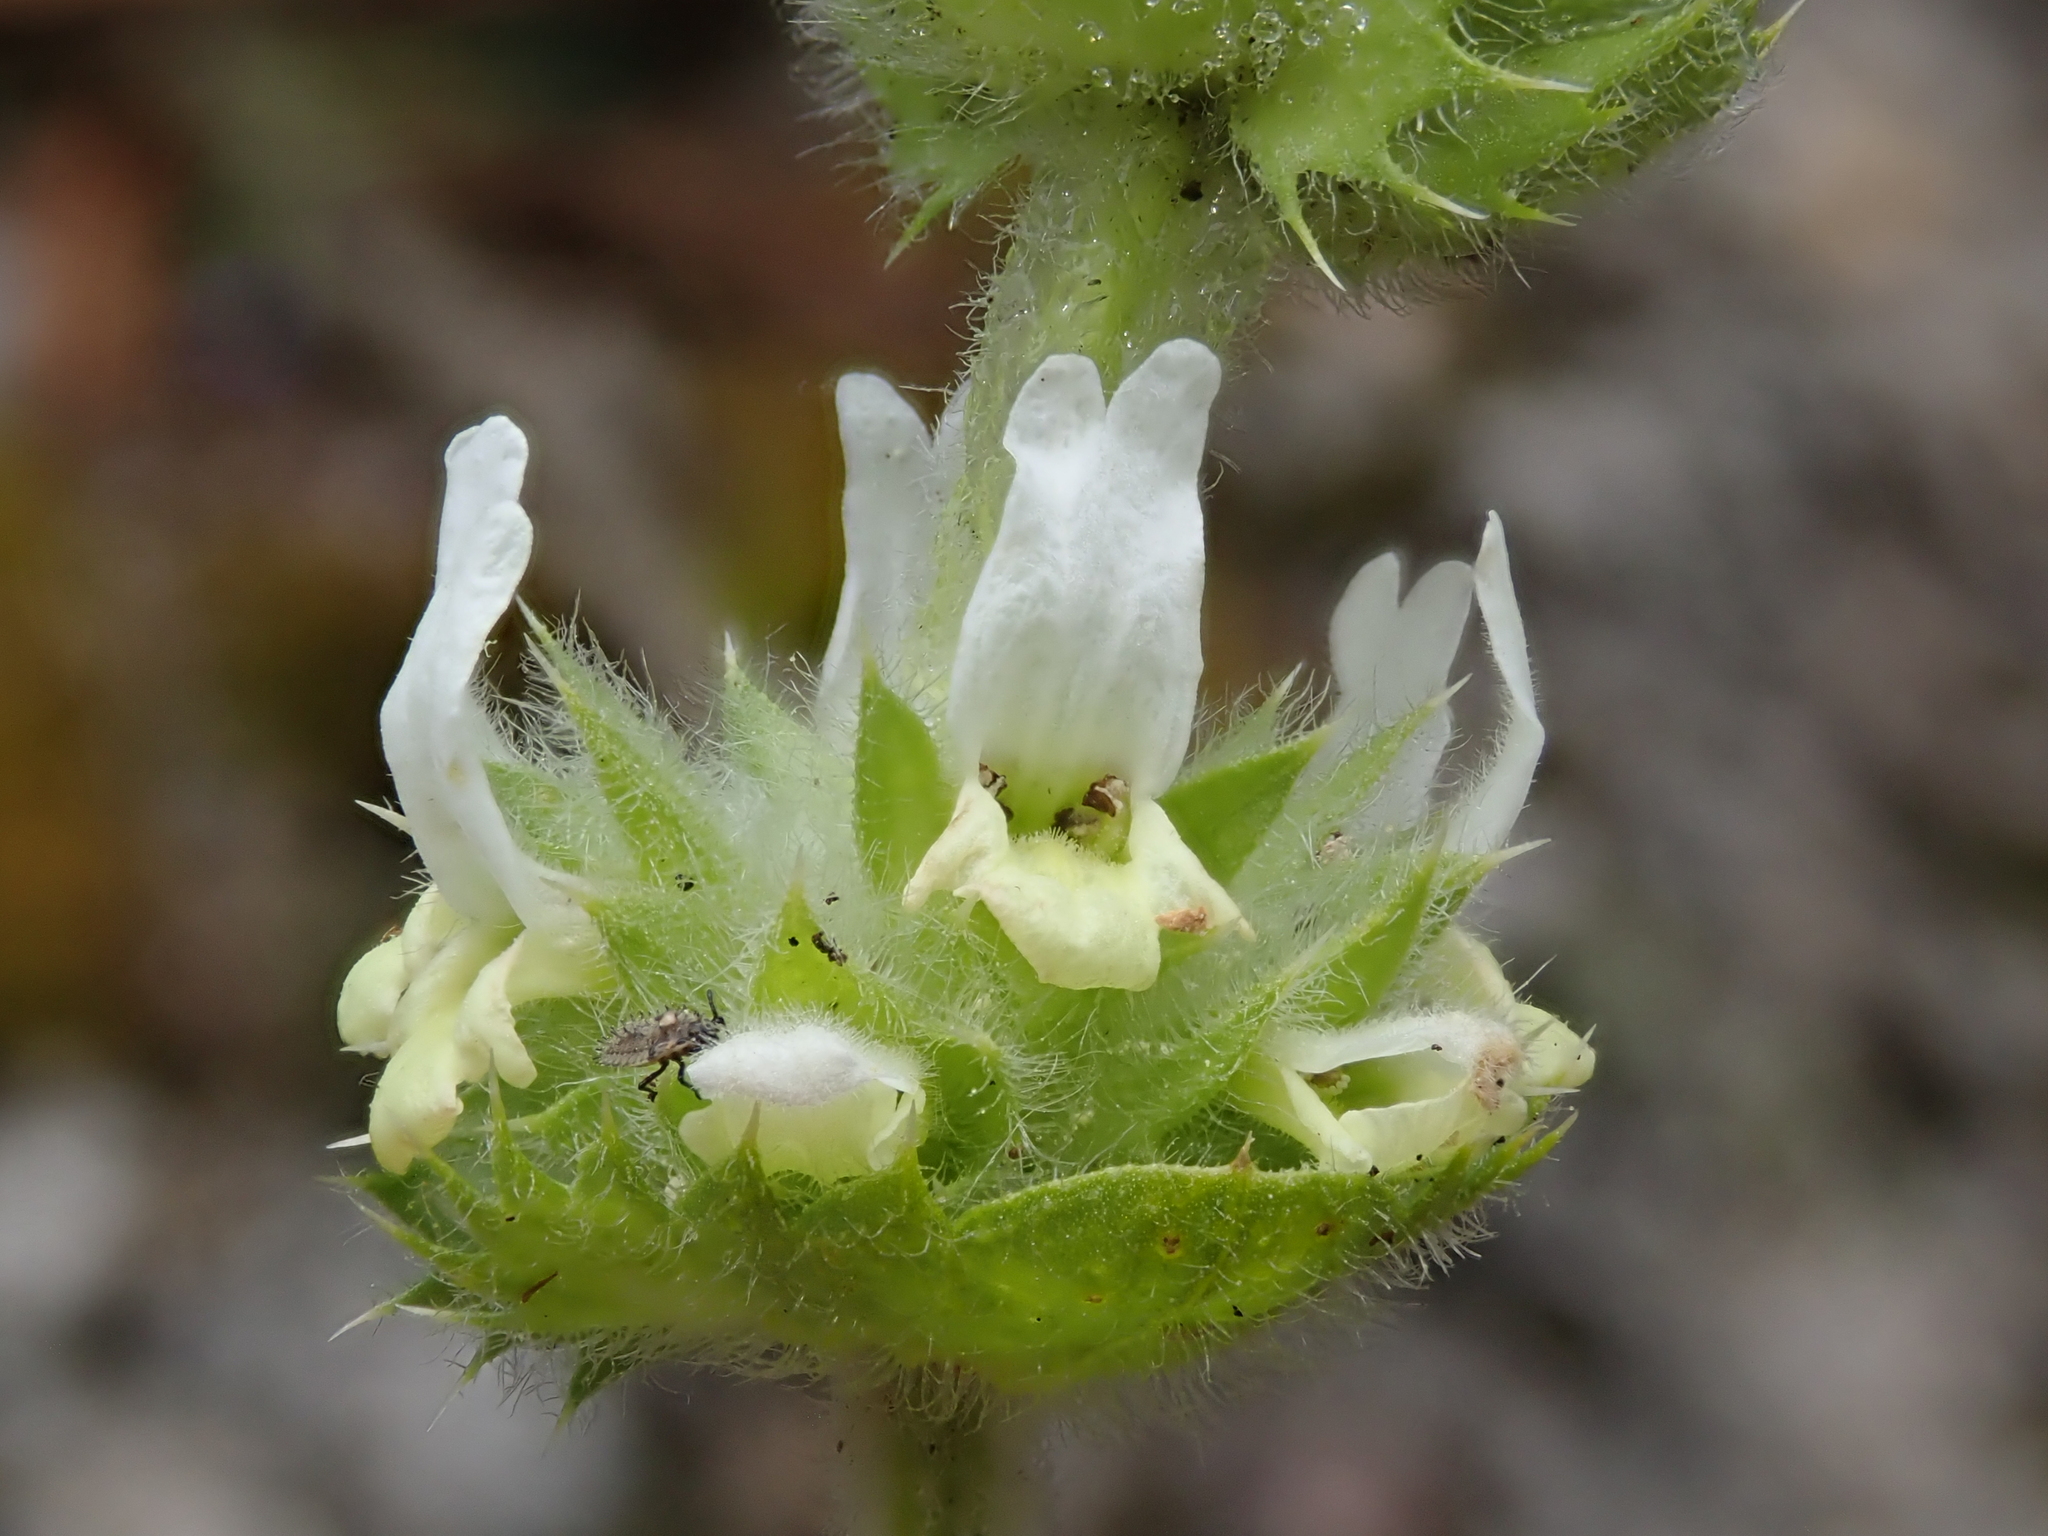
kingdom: Plantae
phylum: Tracheophyta
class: Magnoliopsida
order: Lamiales
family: Lamiaceae
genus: Sideritis
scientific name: Sideritis hirsuta
